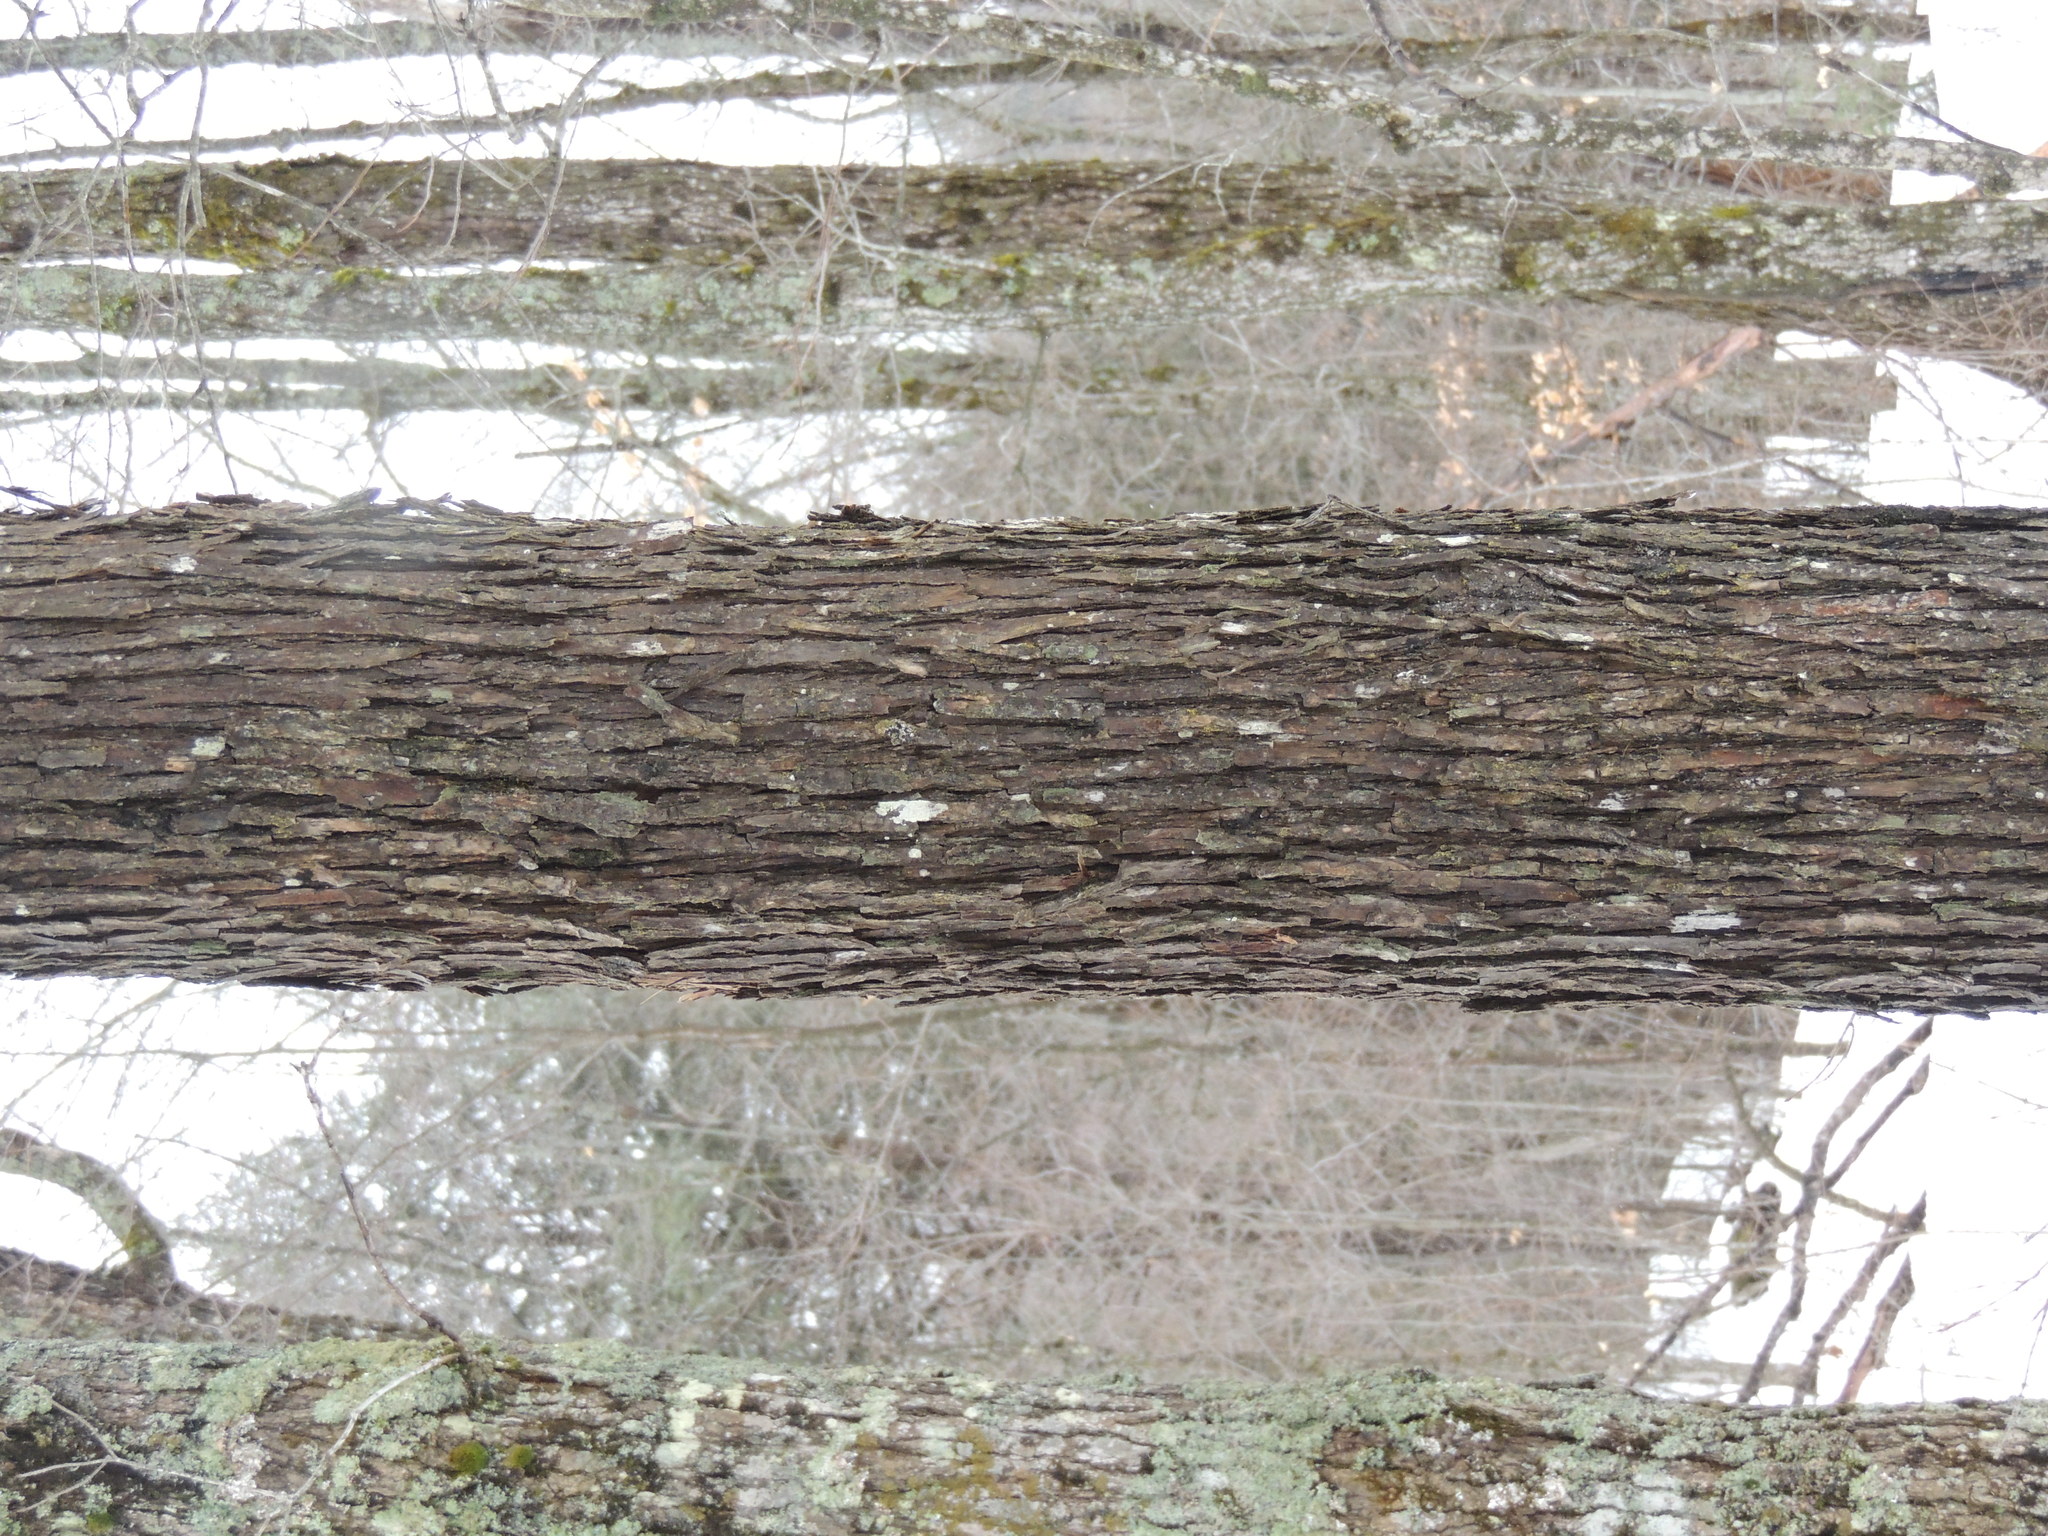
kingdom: Plantae
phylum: Tracheophyta
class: Magnoliopsida
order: Fagales
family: Betulaceae
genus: Ostrya
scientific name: Ostrya virginiana
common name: Ironwood
